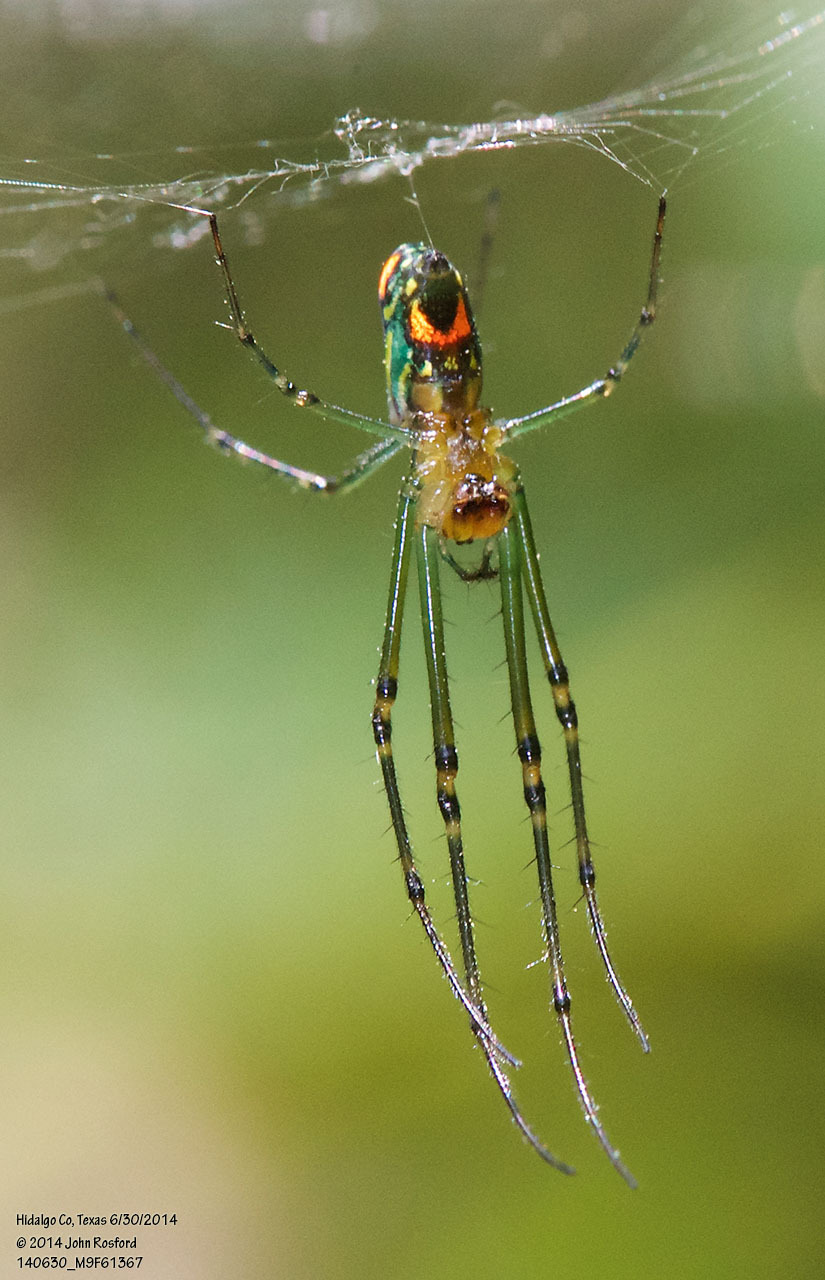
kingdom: Animalia
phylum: Arthropoda
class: Arachnida
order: Araneae
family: Tetragnathidae
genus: Leucauge
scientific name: Leucauge argyrobapta
